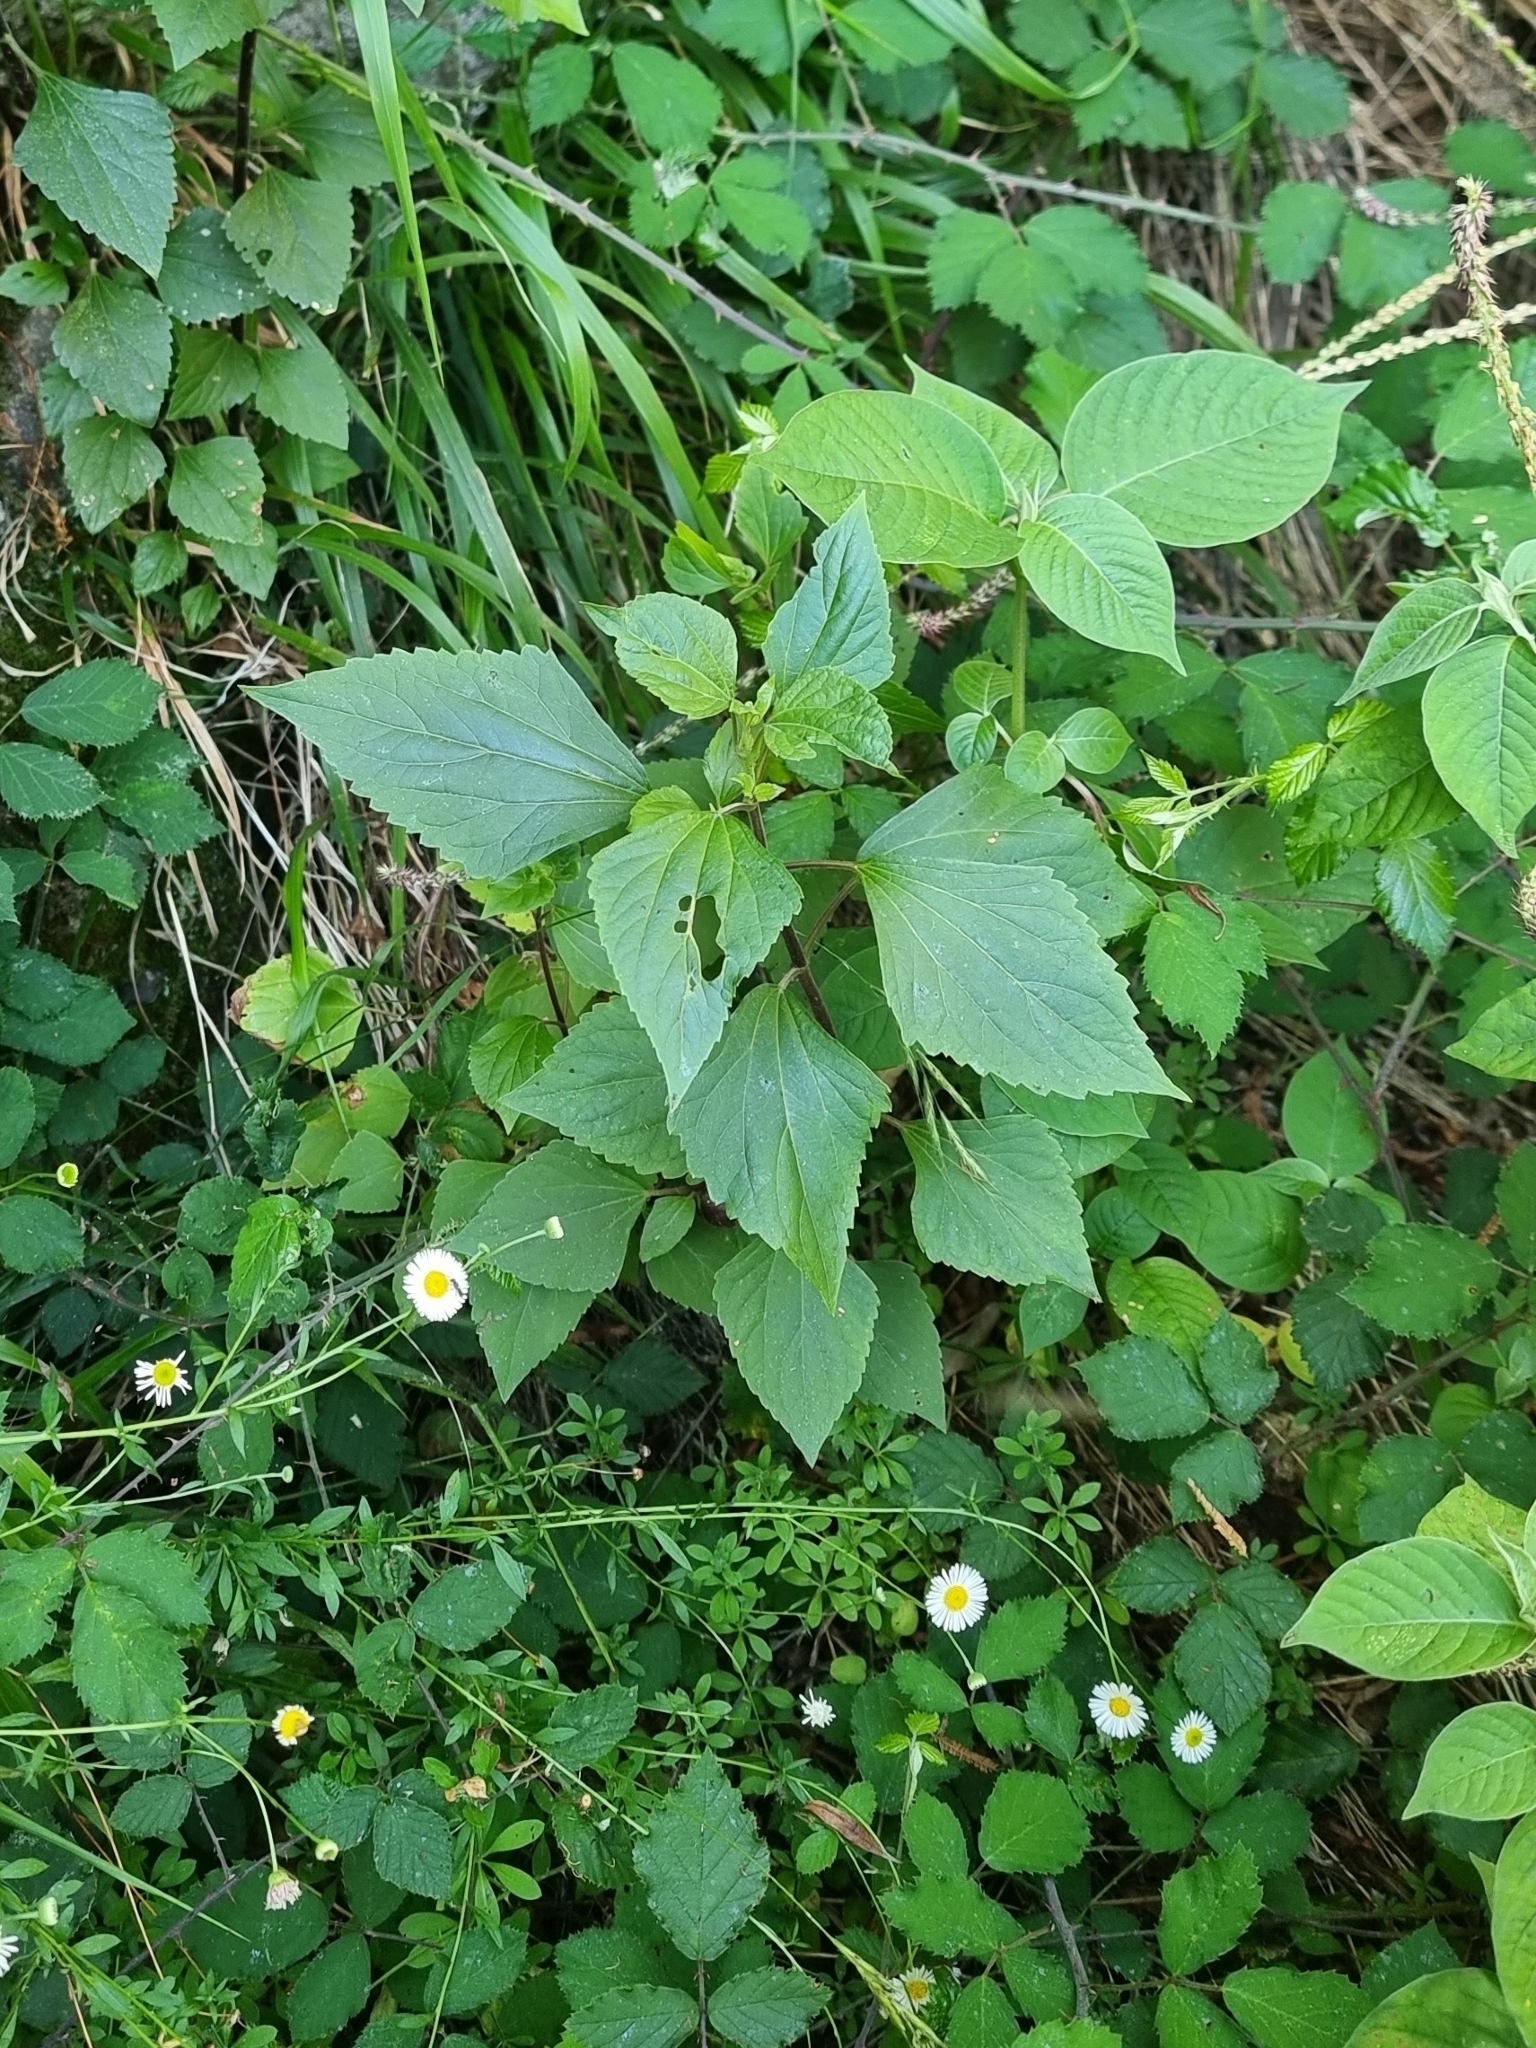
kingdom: Plantae
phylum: Tracheophyta
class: Magnoliopsida
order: Asterales
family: Asteraceae
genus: Ageratina
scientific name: Ageratina adenophora
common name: Sticky snakeroot
